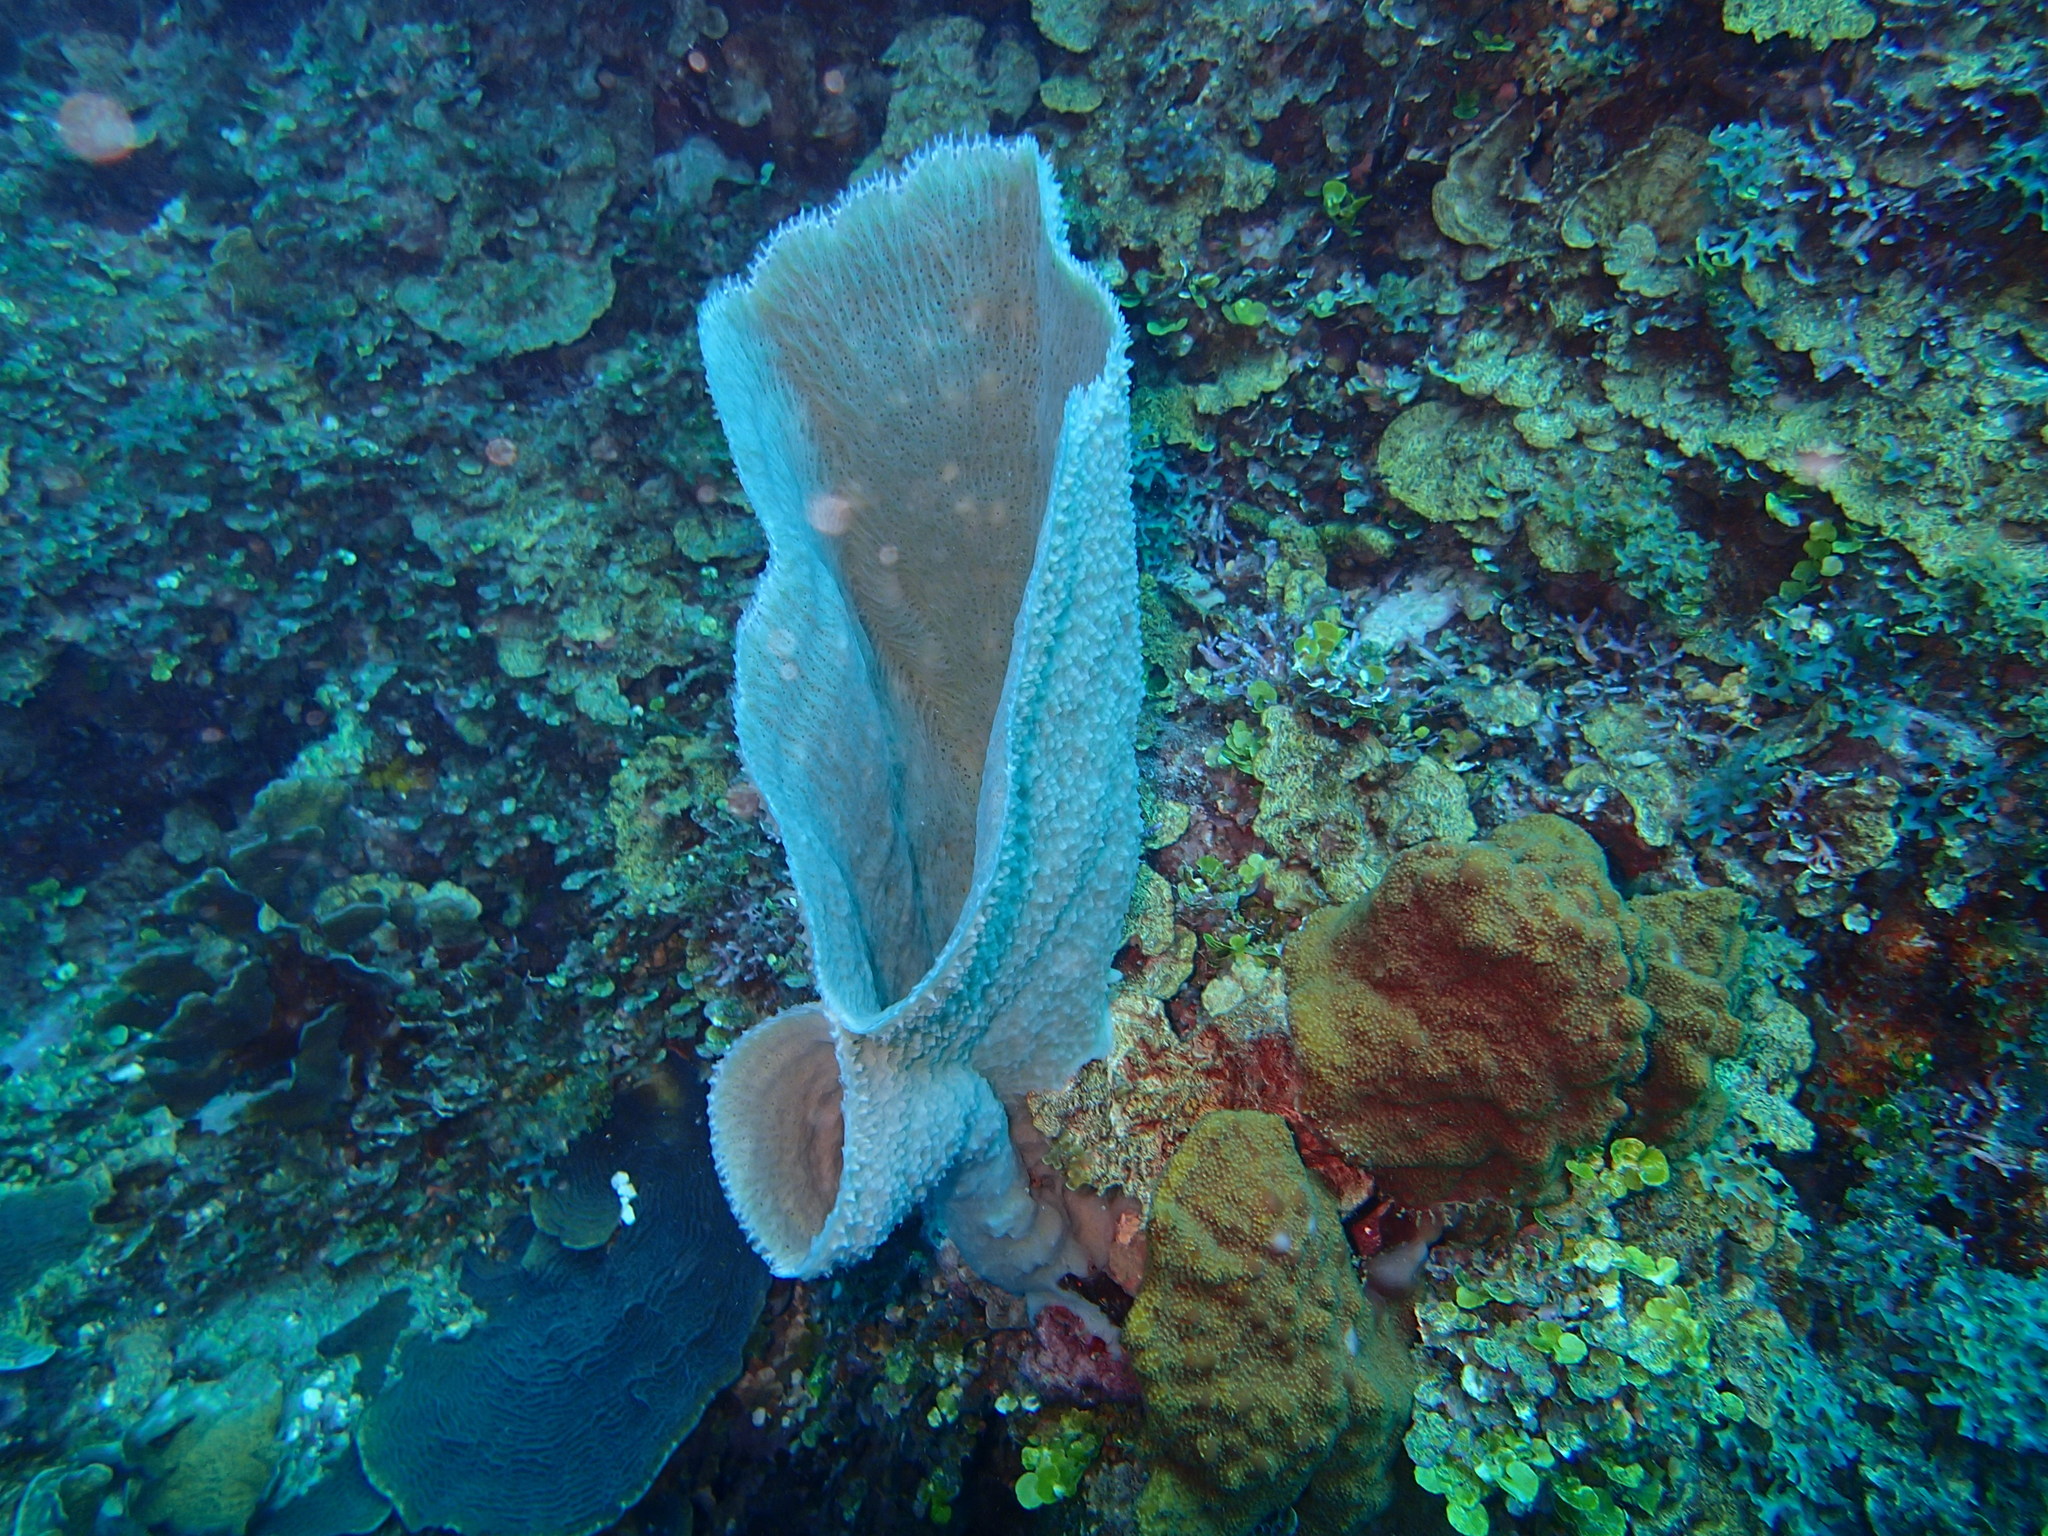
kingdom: Animalia
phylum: Porifera
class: Demospongiae
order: Haplosclerida
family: Niphatidae
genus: Niphates
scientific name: Niphates digitalis
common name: Pink vase sponge
